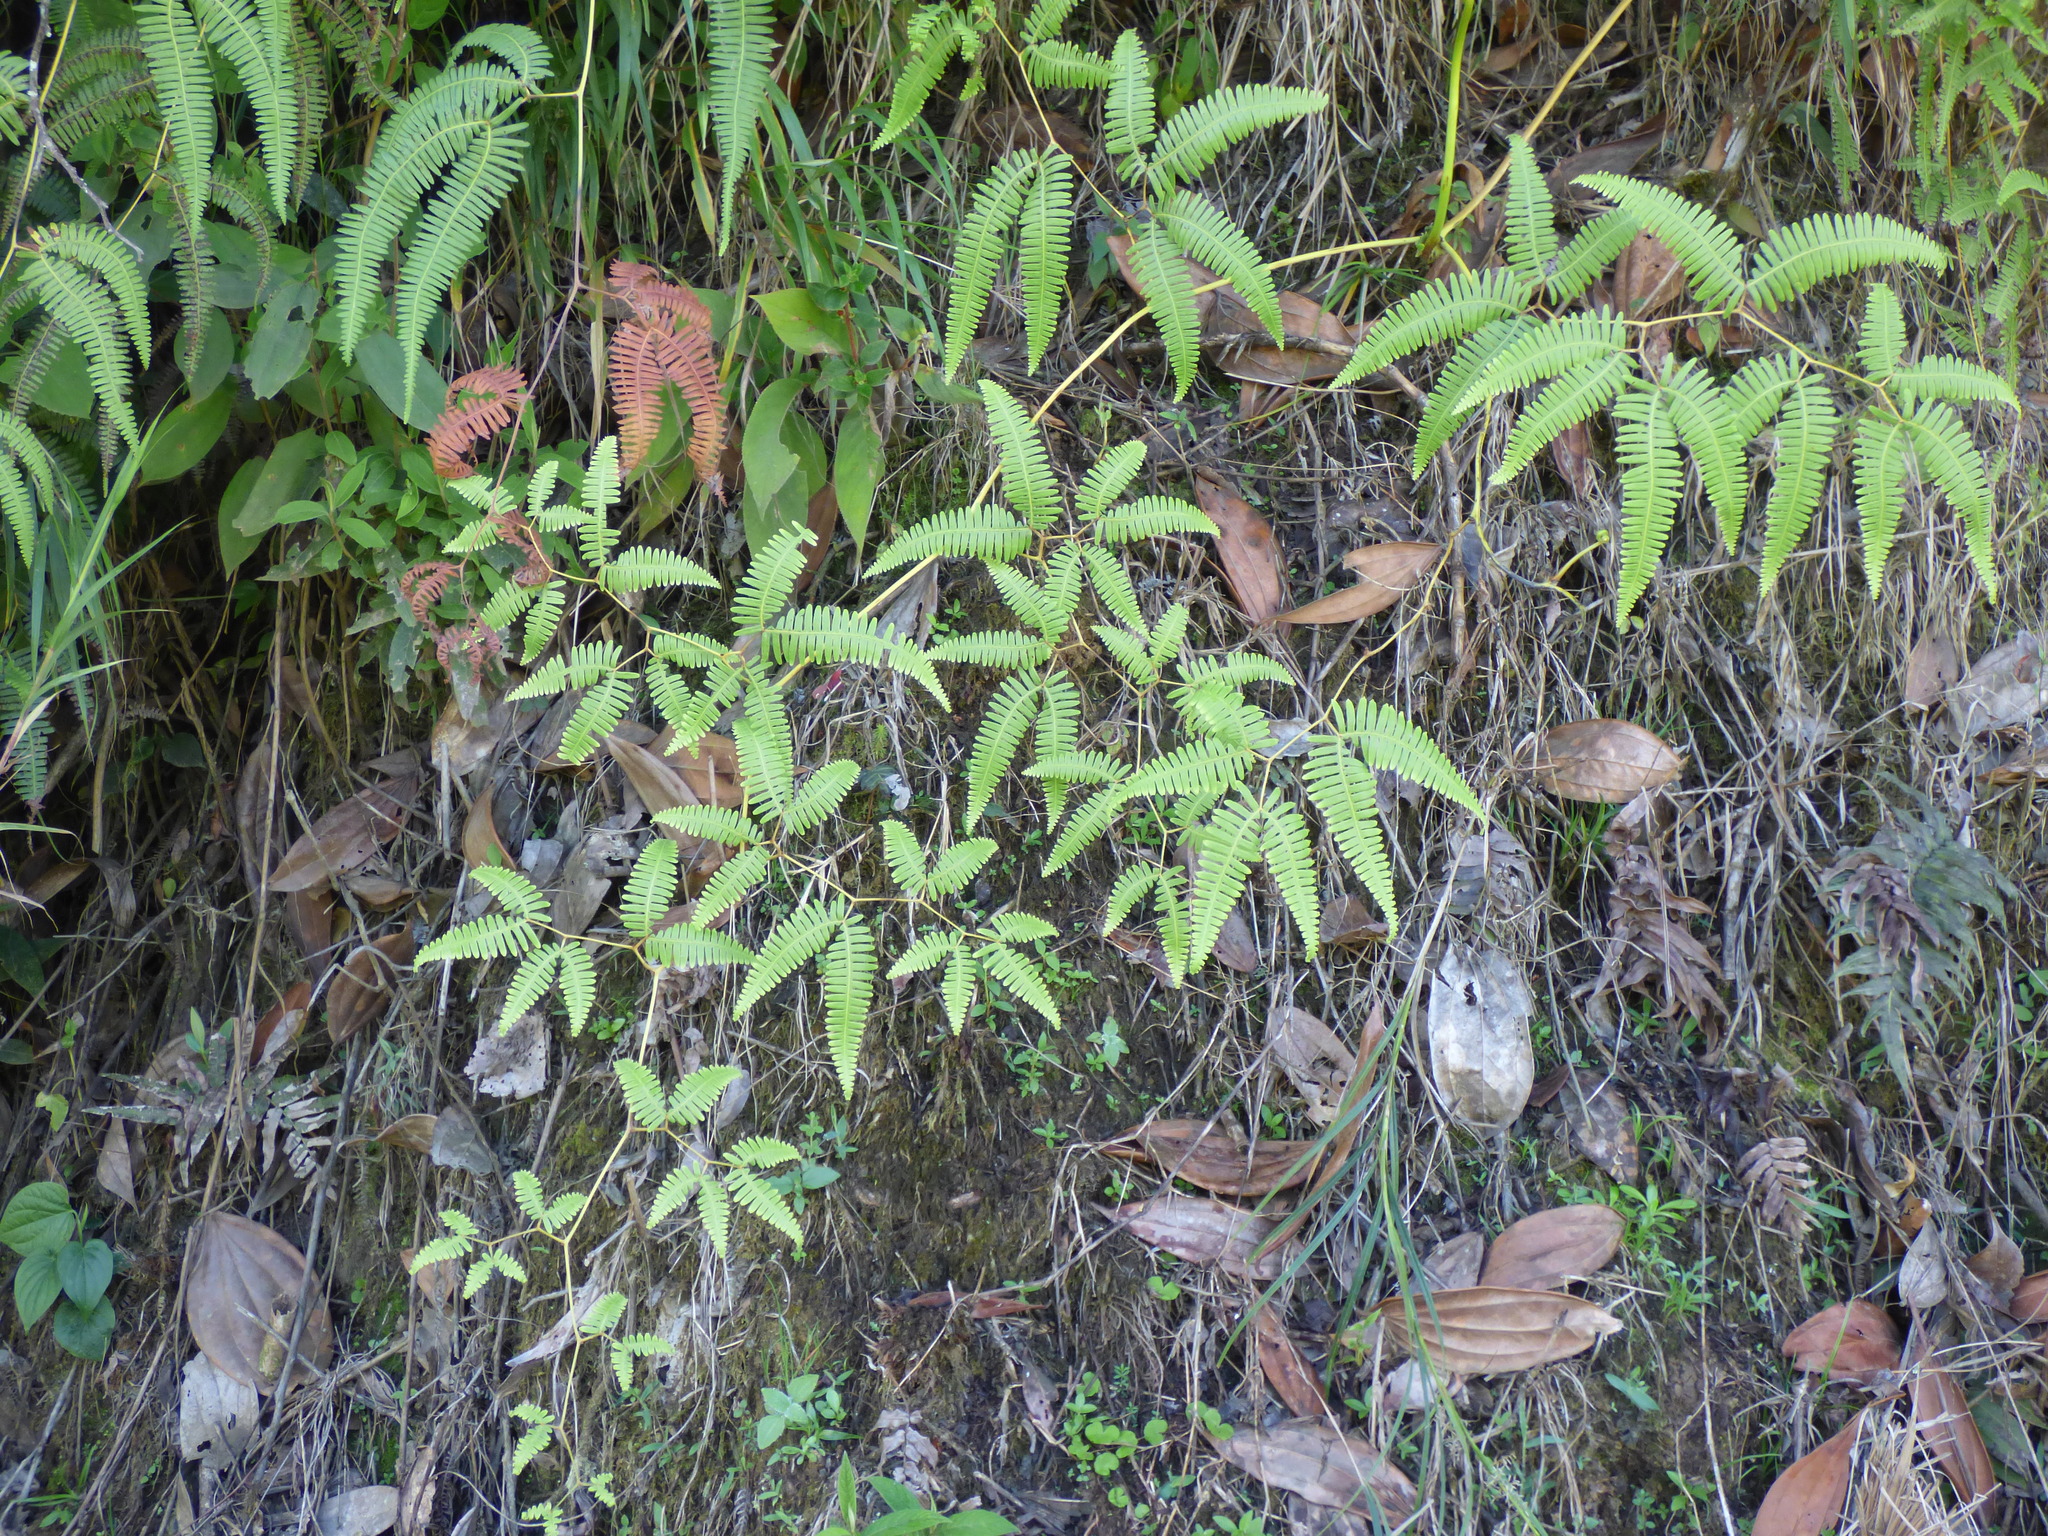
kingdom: Plantae
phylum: Tracheophyta
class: Polypodiopsida
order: Gleicheniales
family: Gleicheniaceae
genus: Gleichenella
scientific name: Gleichenella pectinata
